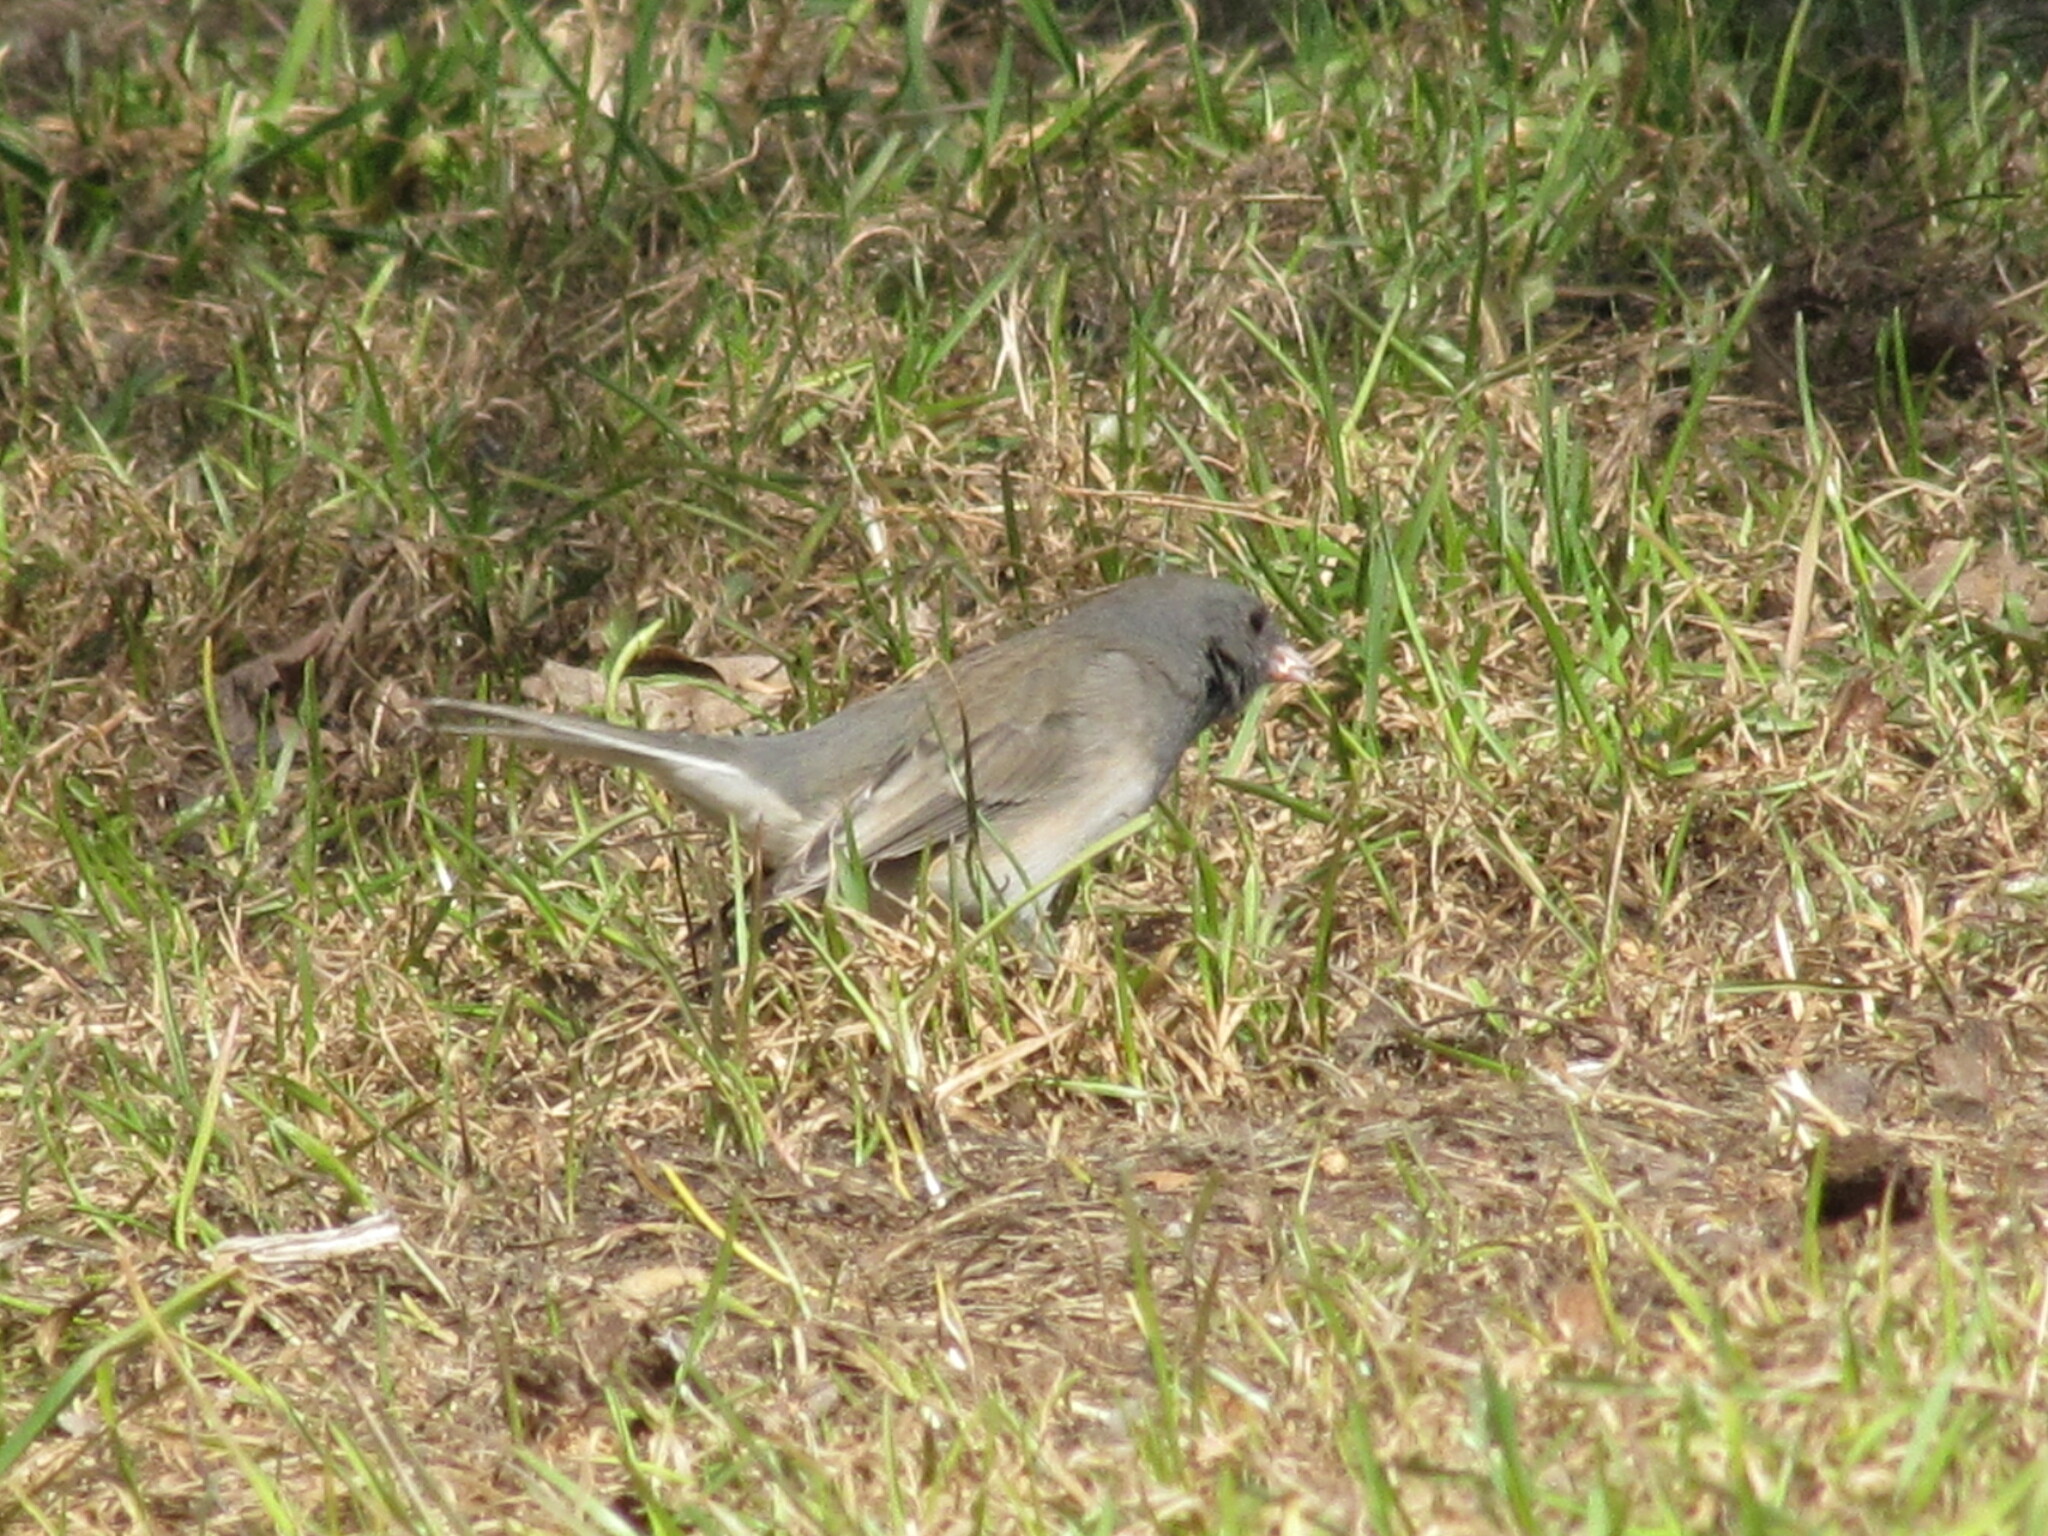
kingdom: Animalia
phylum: Chordata
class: Aves
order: Passeriformes
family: Passerellidae
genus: Junco
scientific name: Junco hyemalis
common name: Dark-eyed junco
